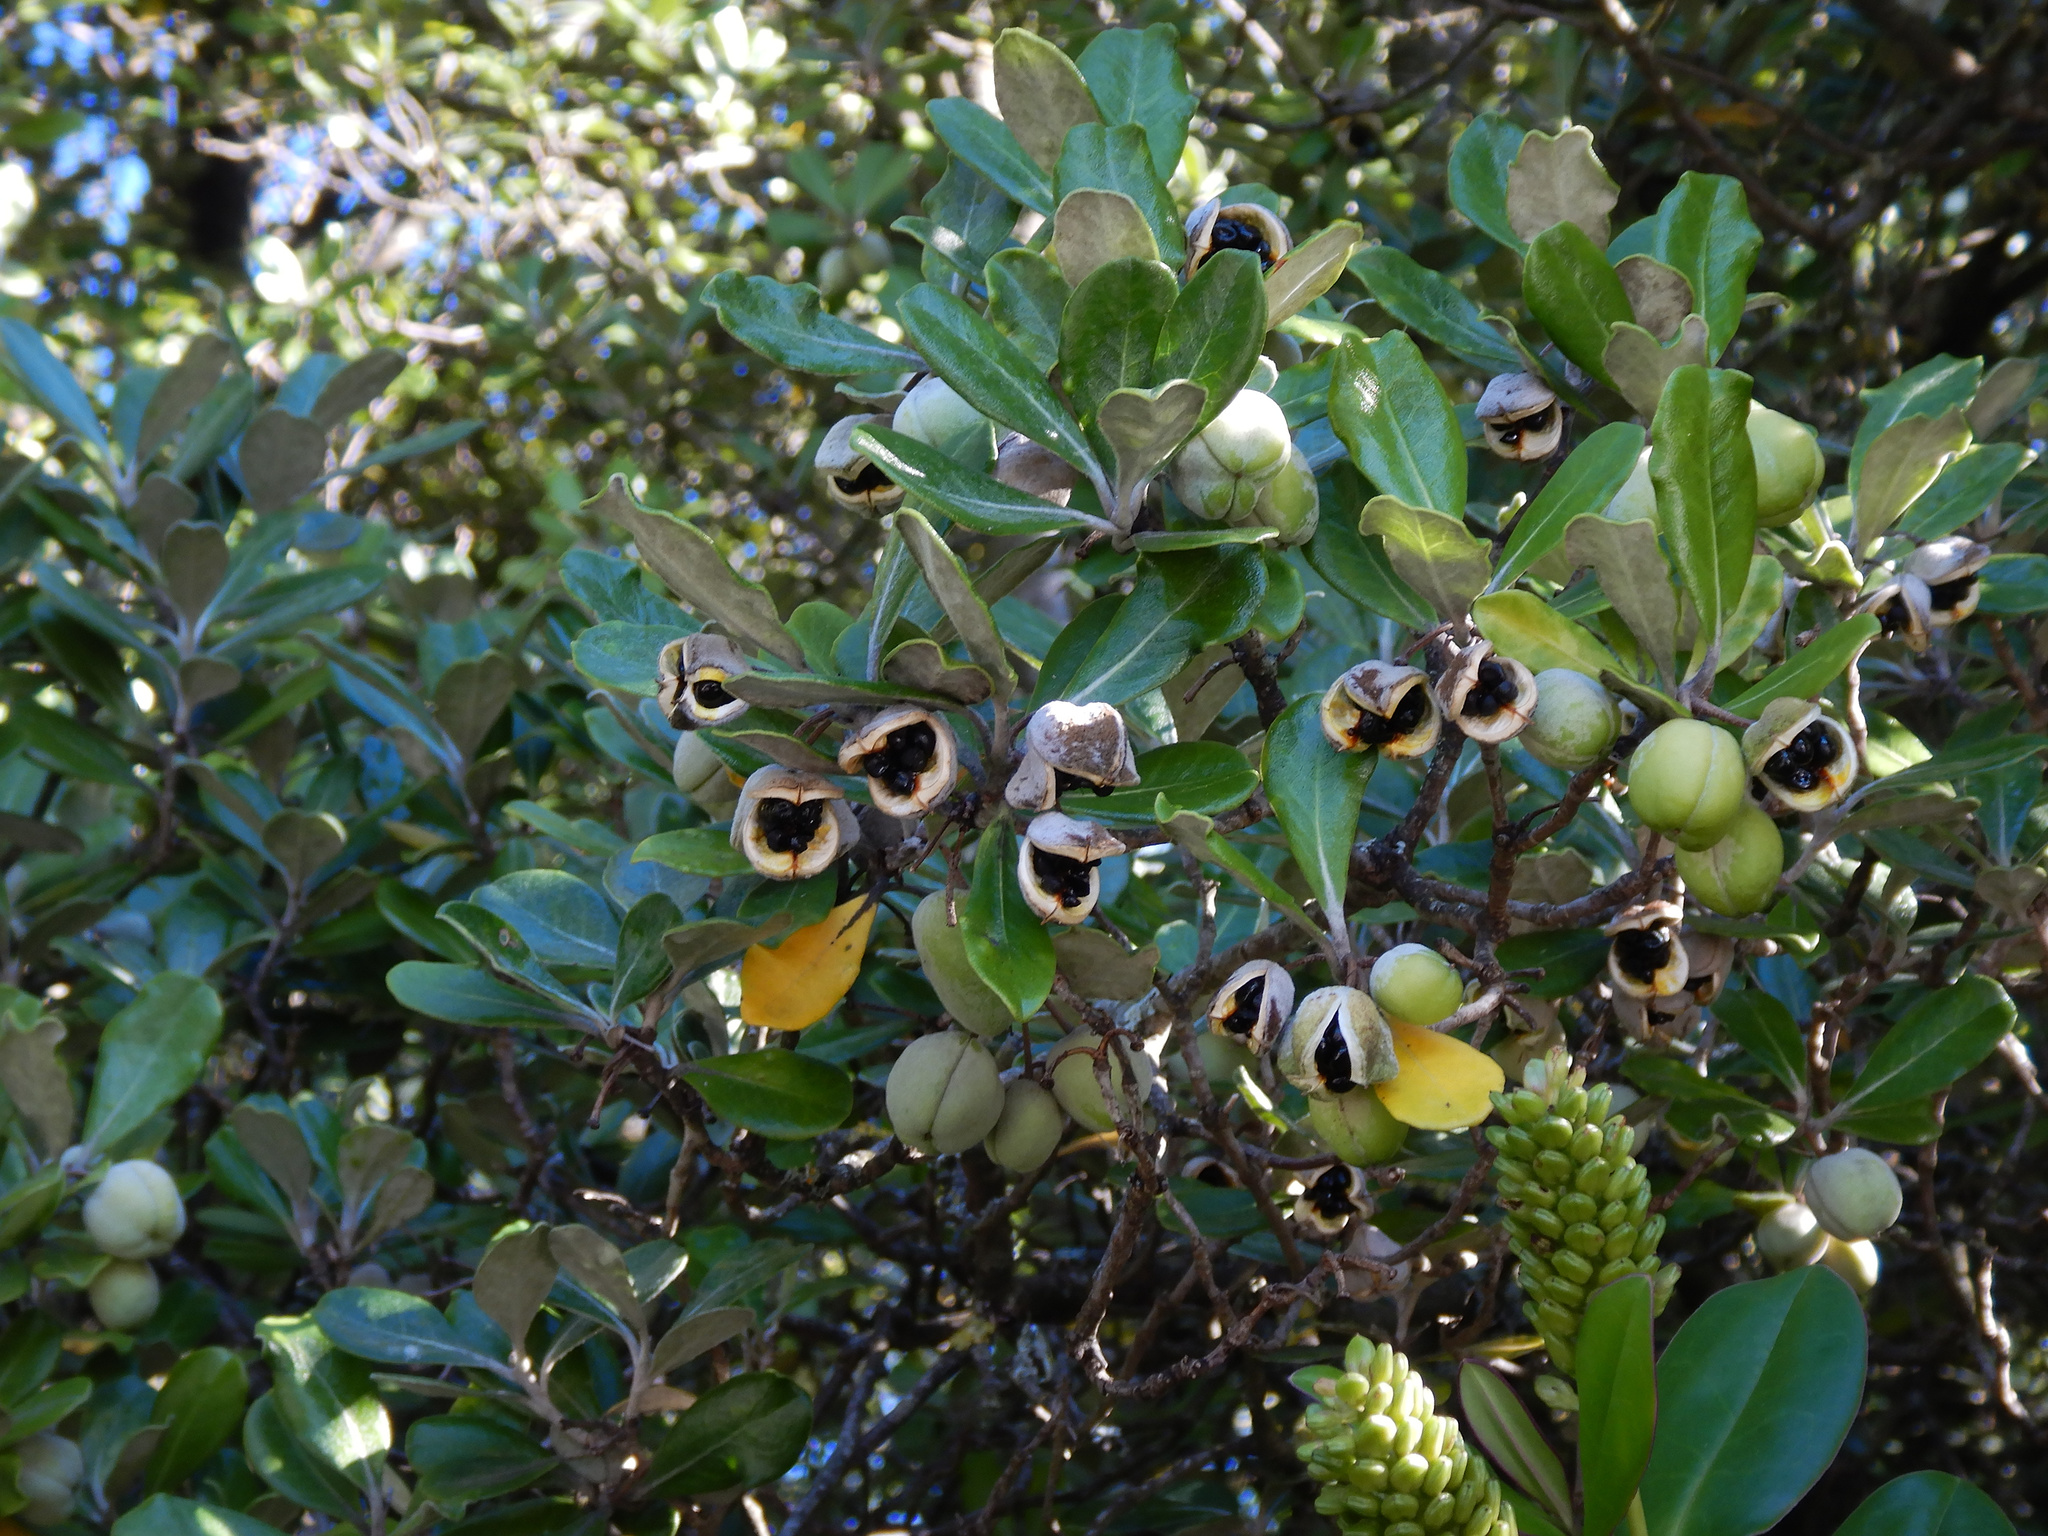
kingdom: Plantae
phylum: Tracheophyta
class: Magnoliopsida
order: Apiales
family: Pittosporaceae
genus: Pittosporum
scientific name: Pittosporum crassifolium
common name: Karo
